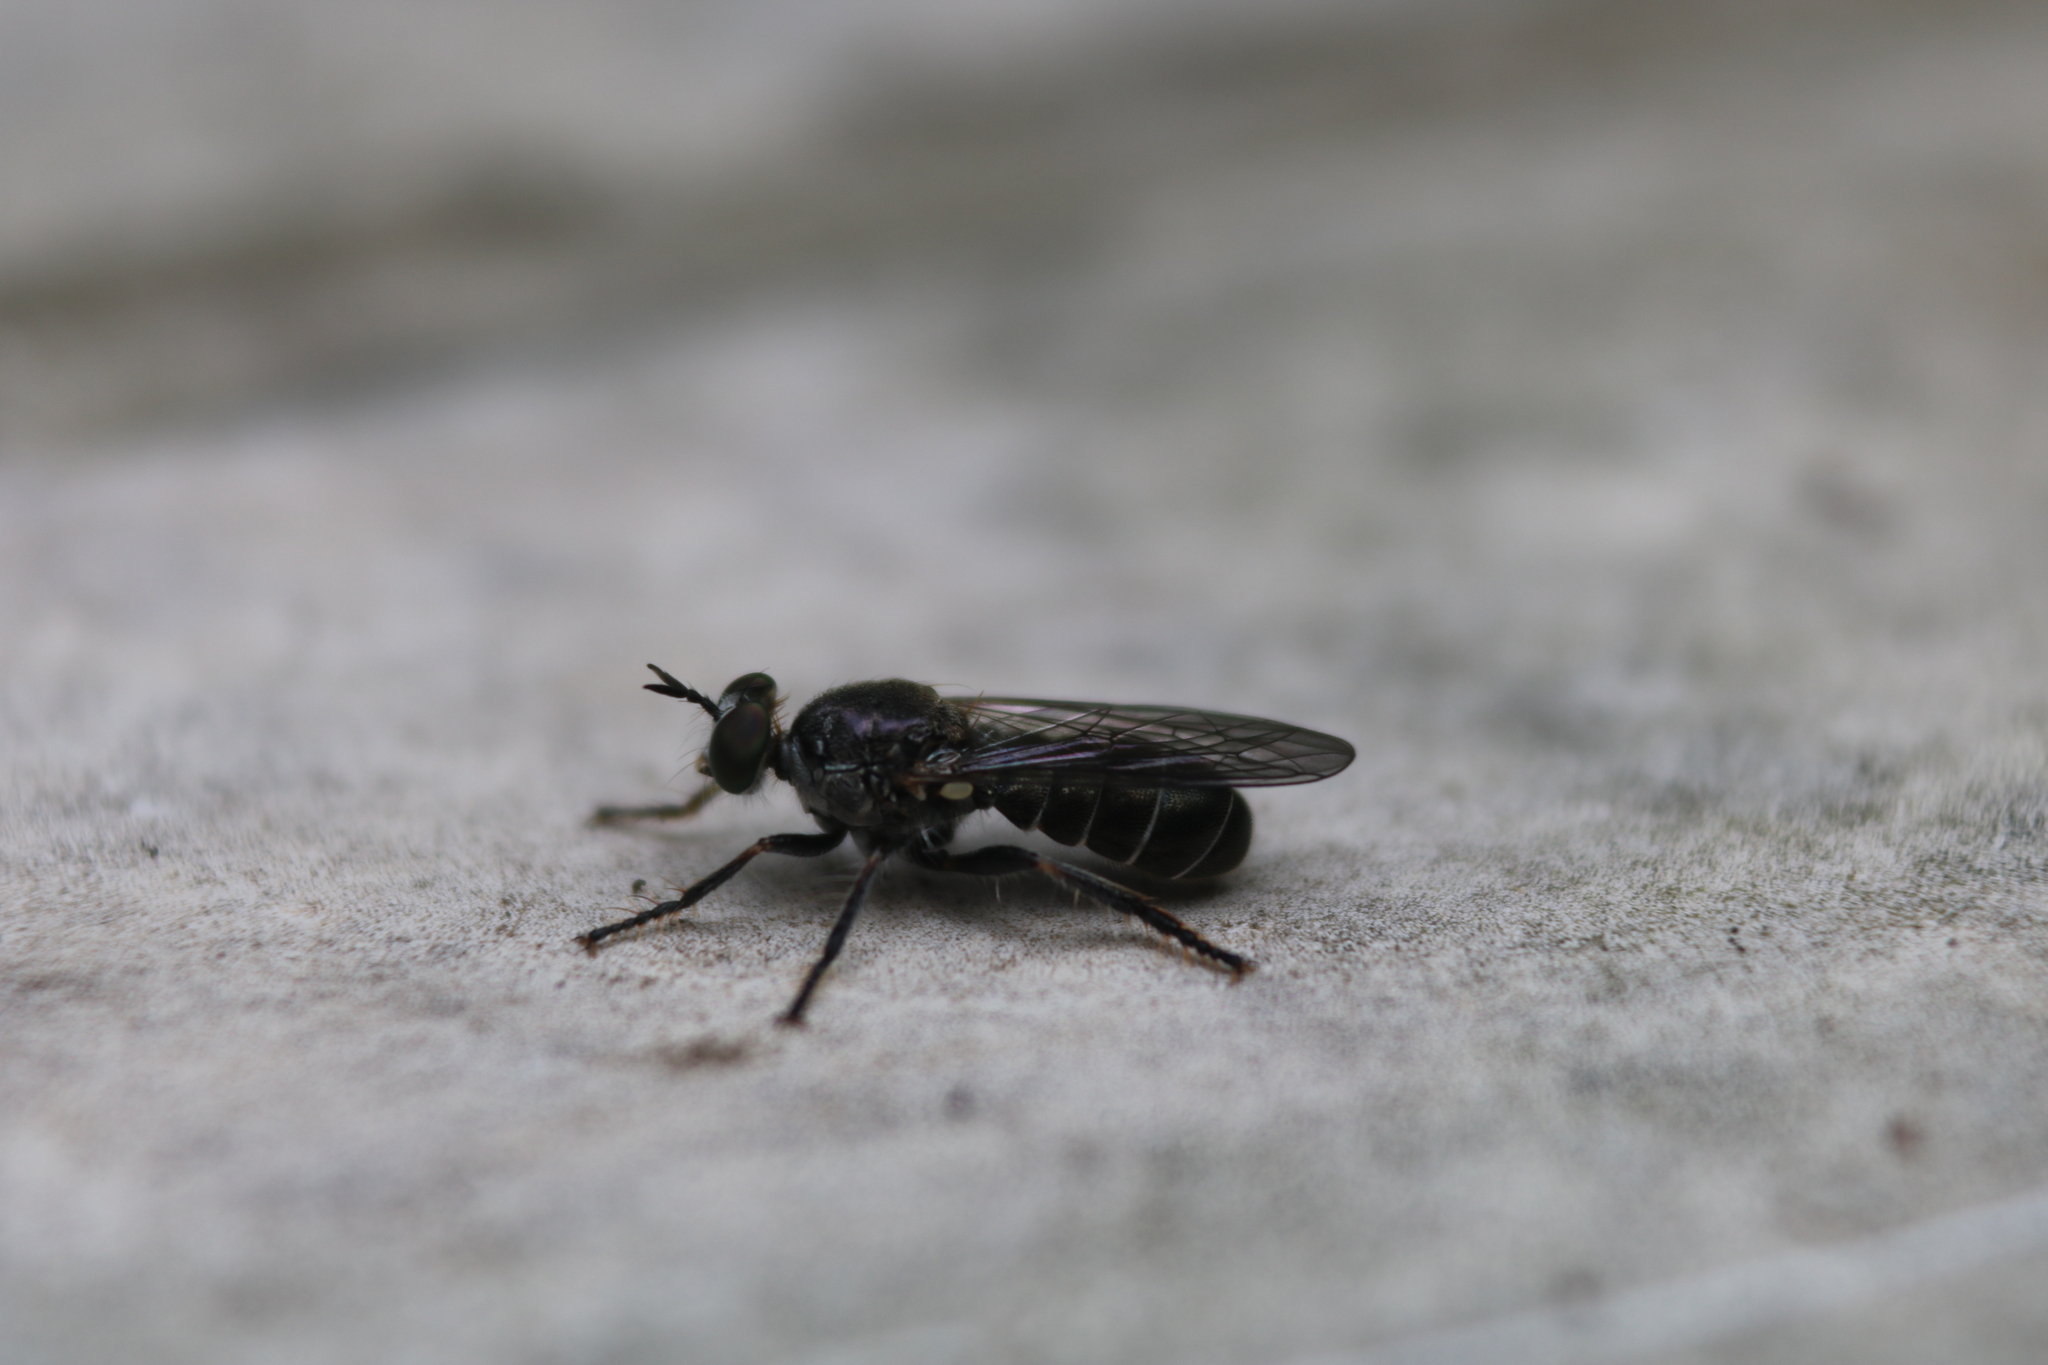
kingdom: Animalia
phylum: Arthropoda
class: Insecta
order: Diptera
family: Asilidae
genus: Atomosia
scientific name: Atomosia puella
